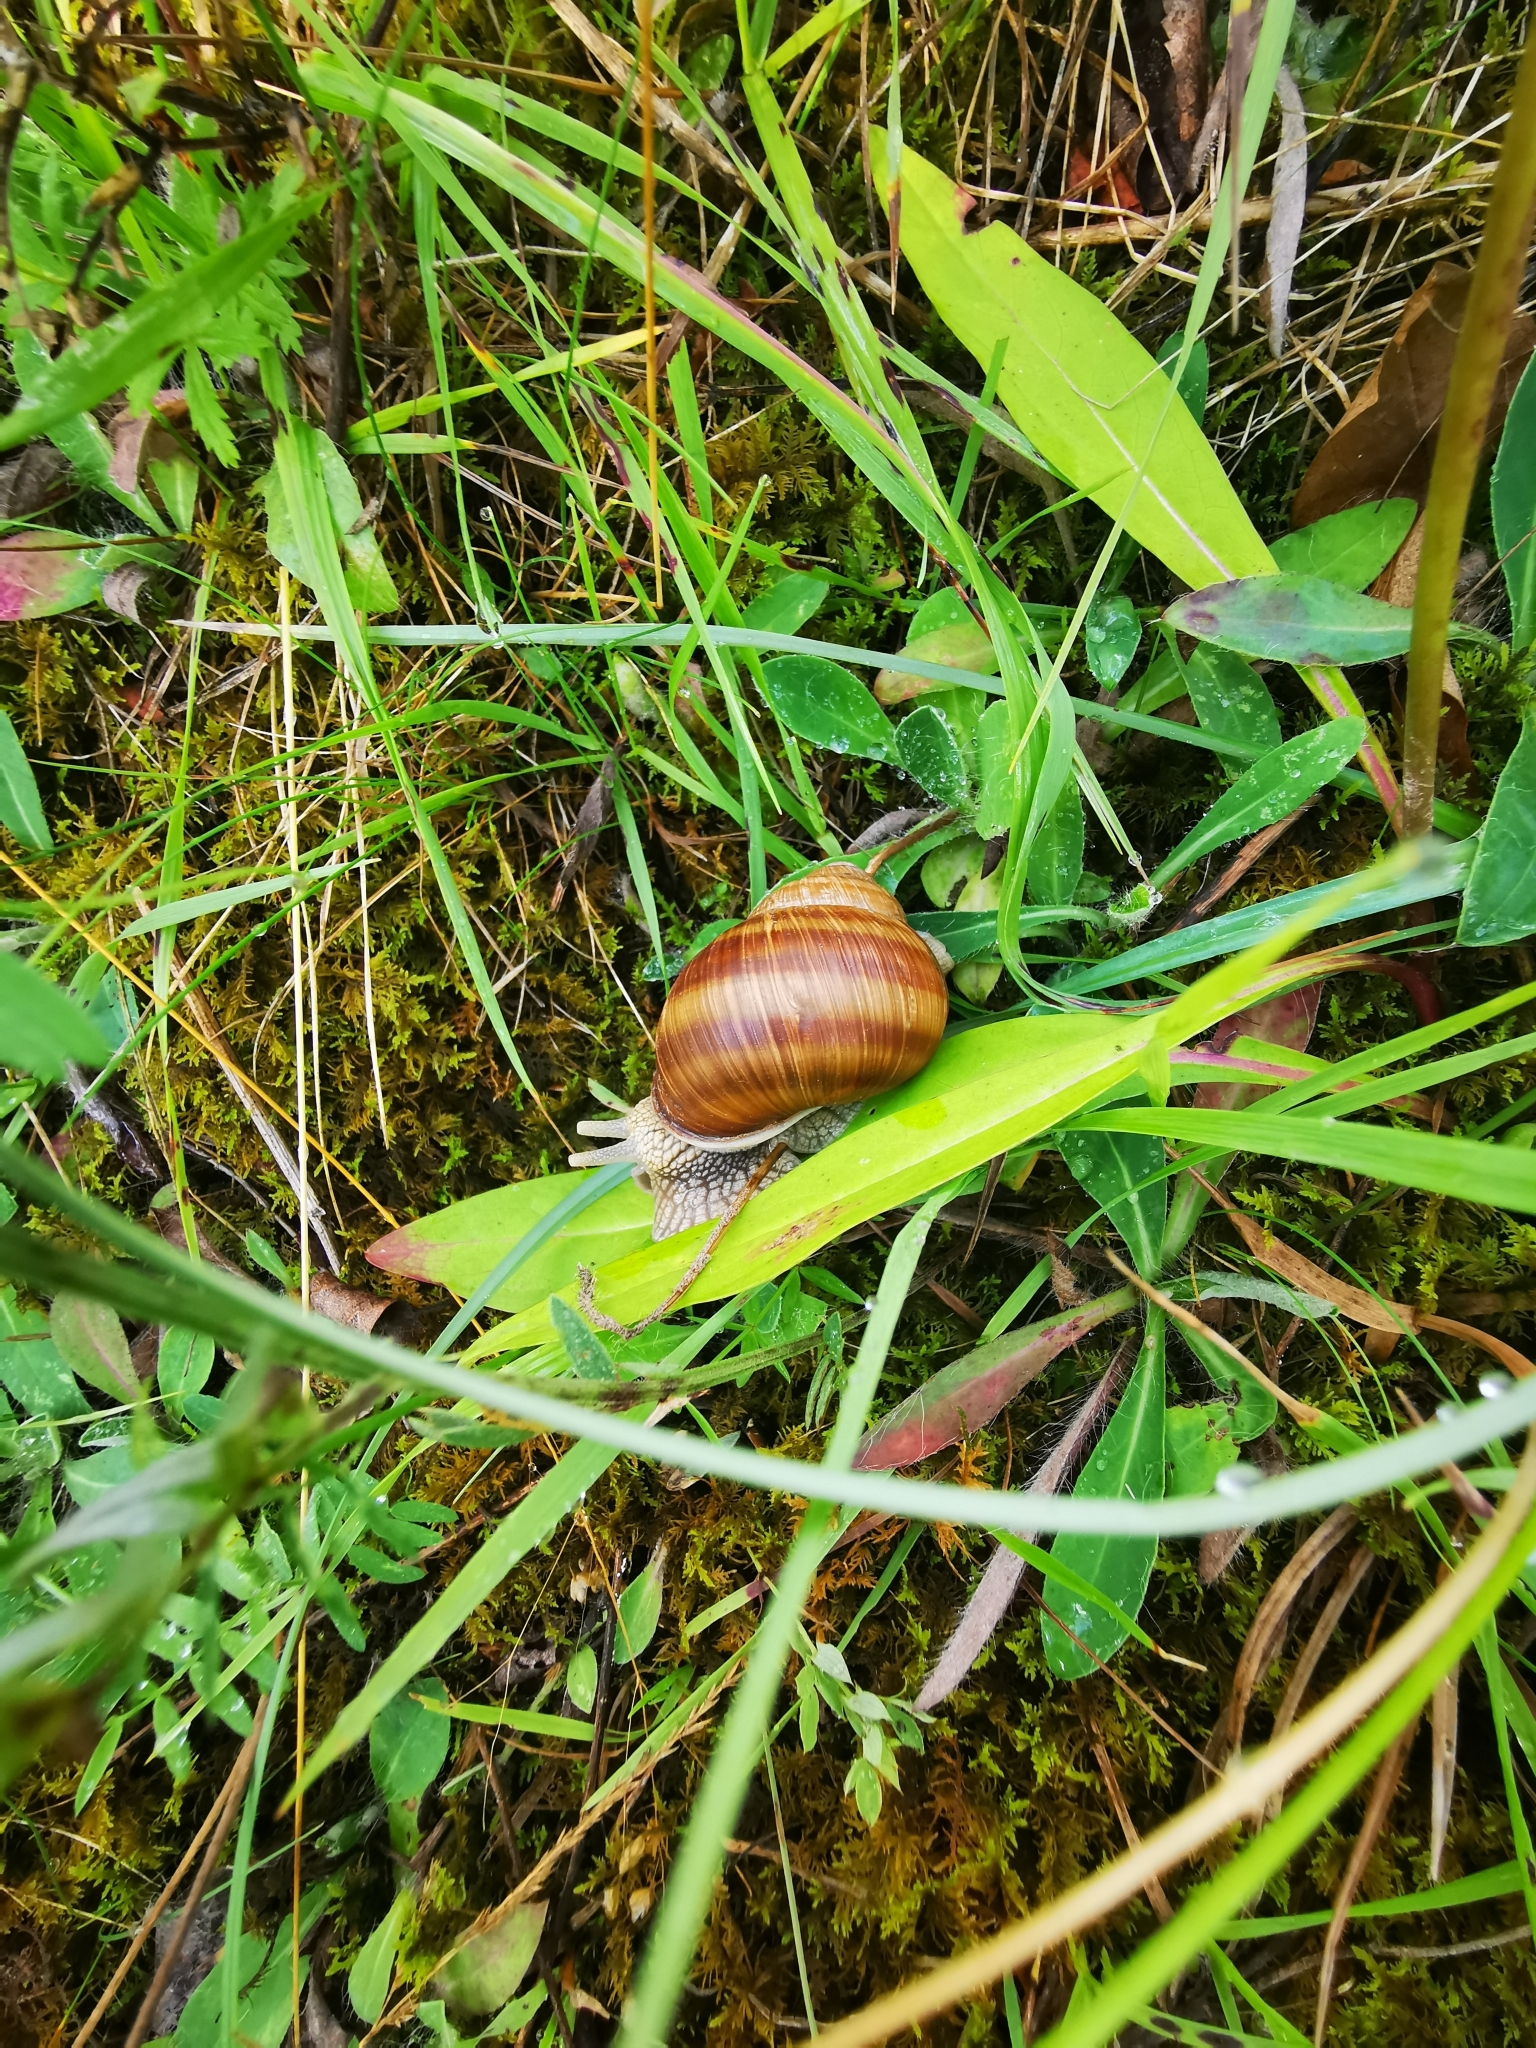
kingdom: Animalia
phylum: Mollusca
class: Gastropoda
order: Stylommatophora
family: Helicidae
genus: Helix
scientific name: Helix pomatia
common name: Roman snail
